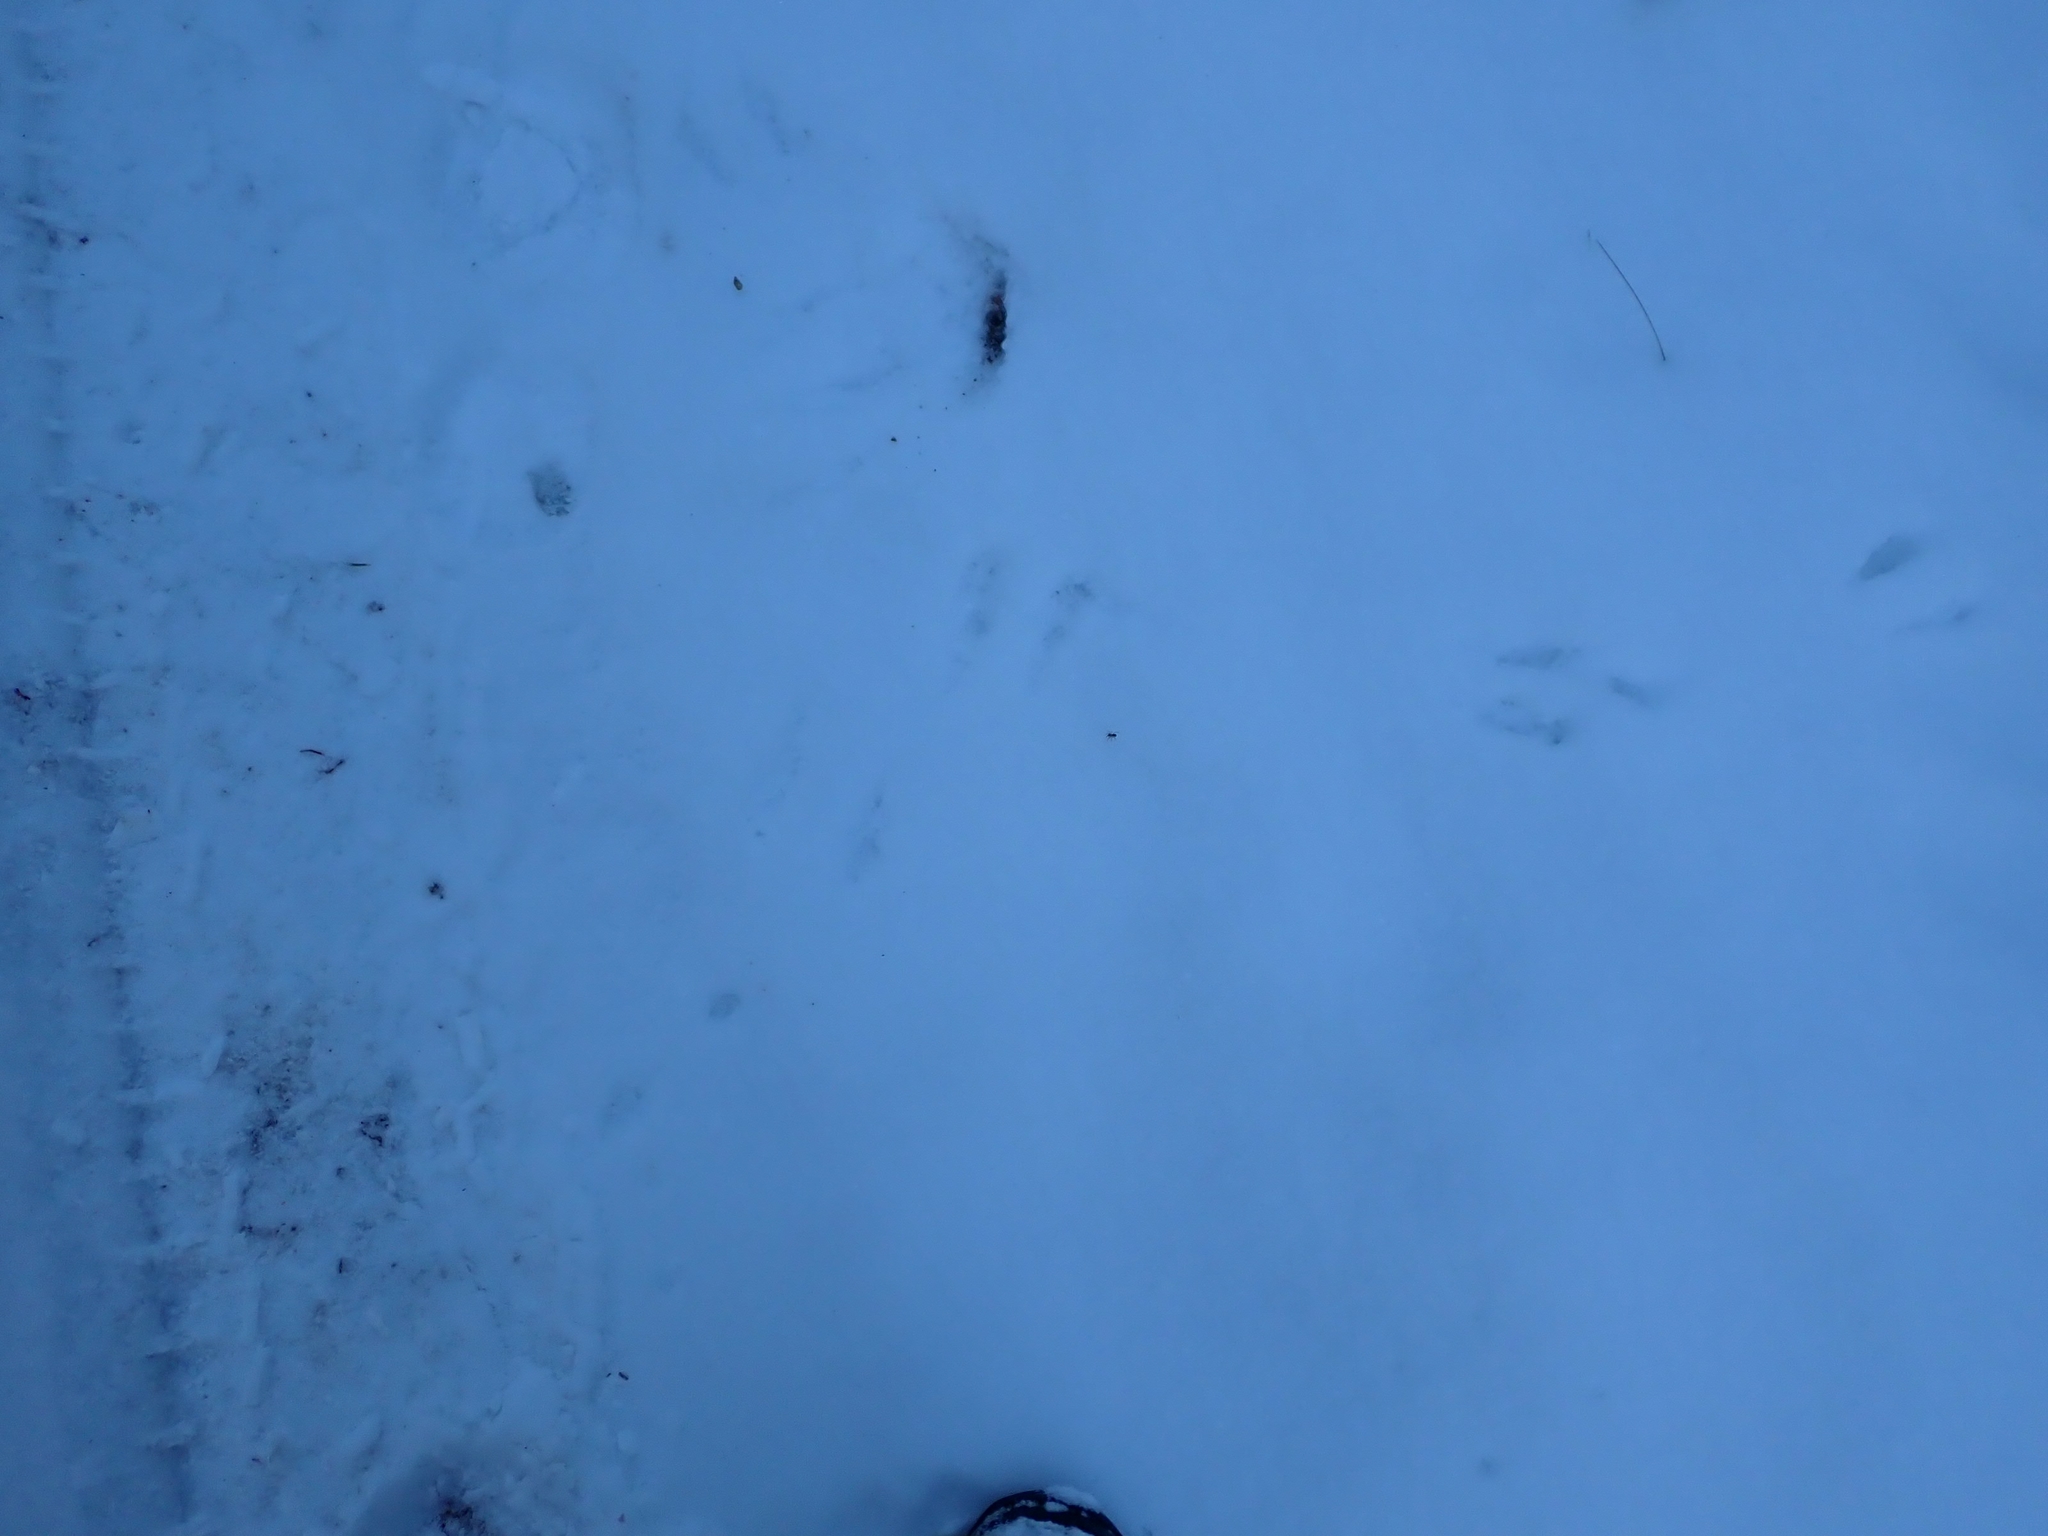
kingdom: Animalia
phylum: Chordata
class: Aves
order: Passeriformes
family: Corvidae
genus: Cyanocitta
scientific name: Cyanocitta cristata
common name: Blue jay
